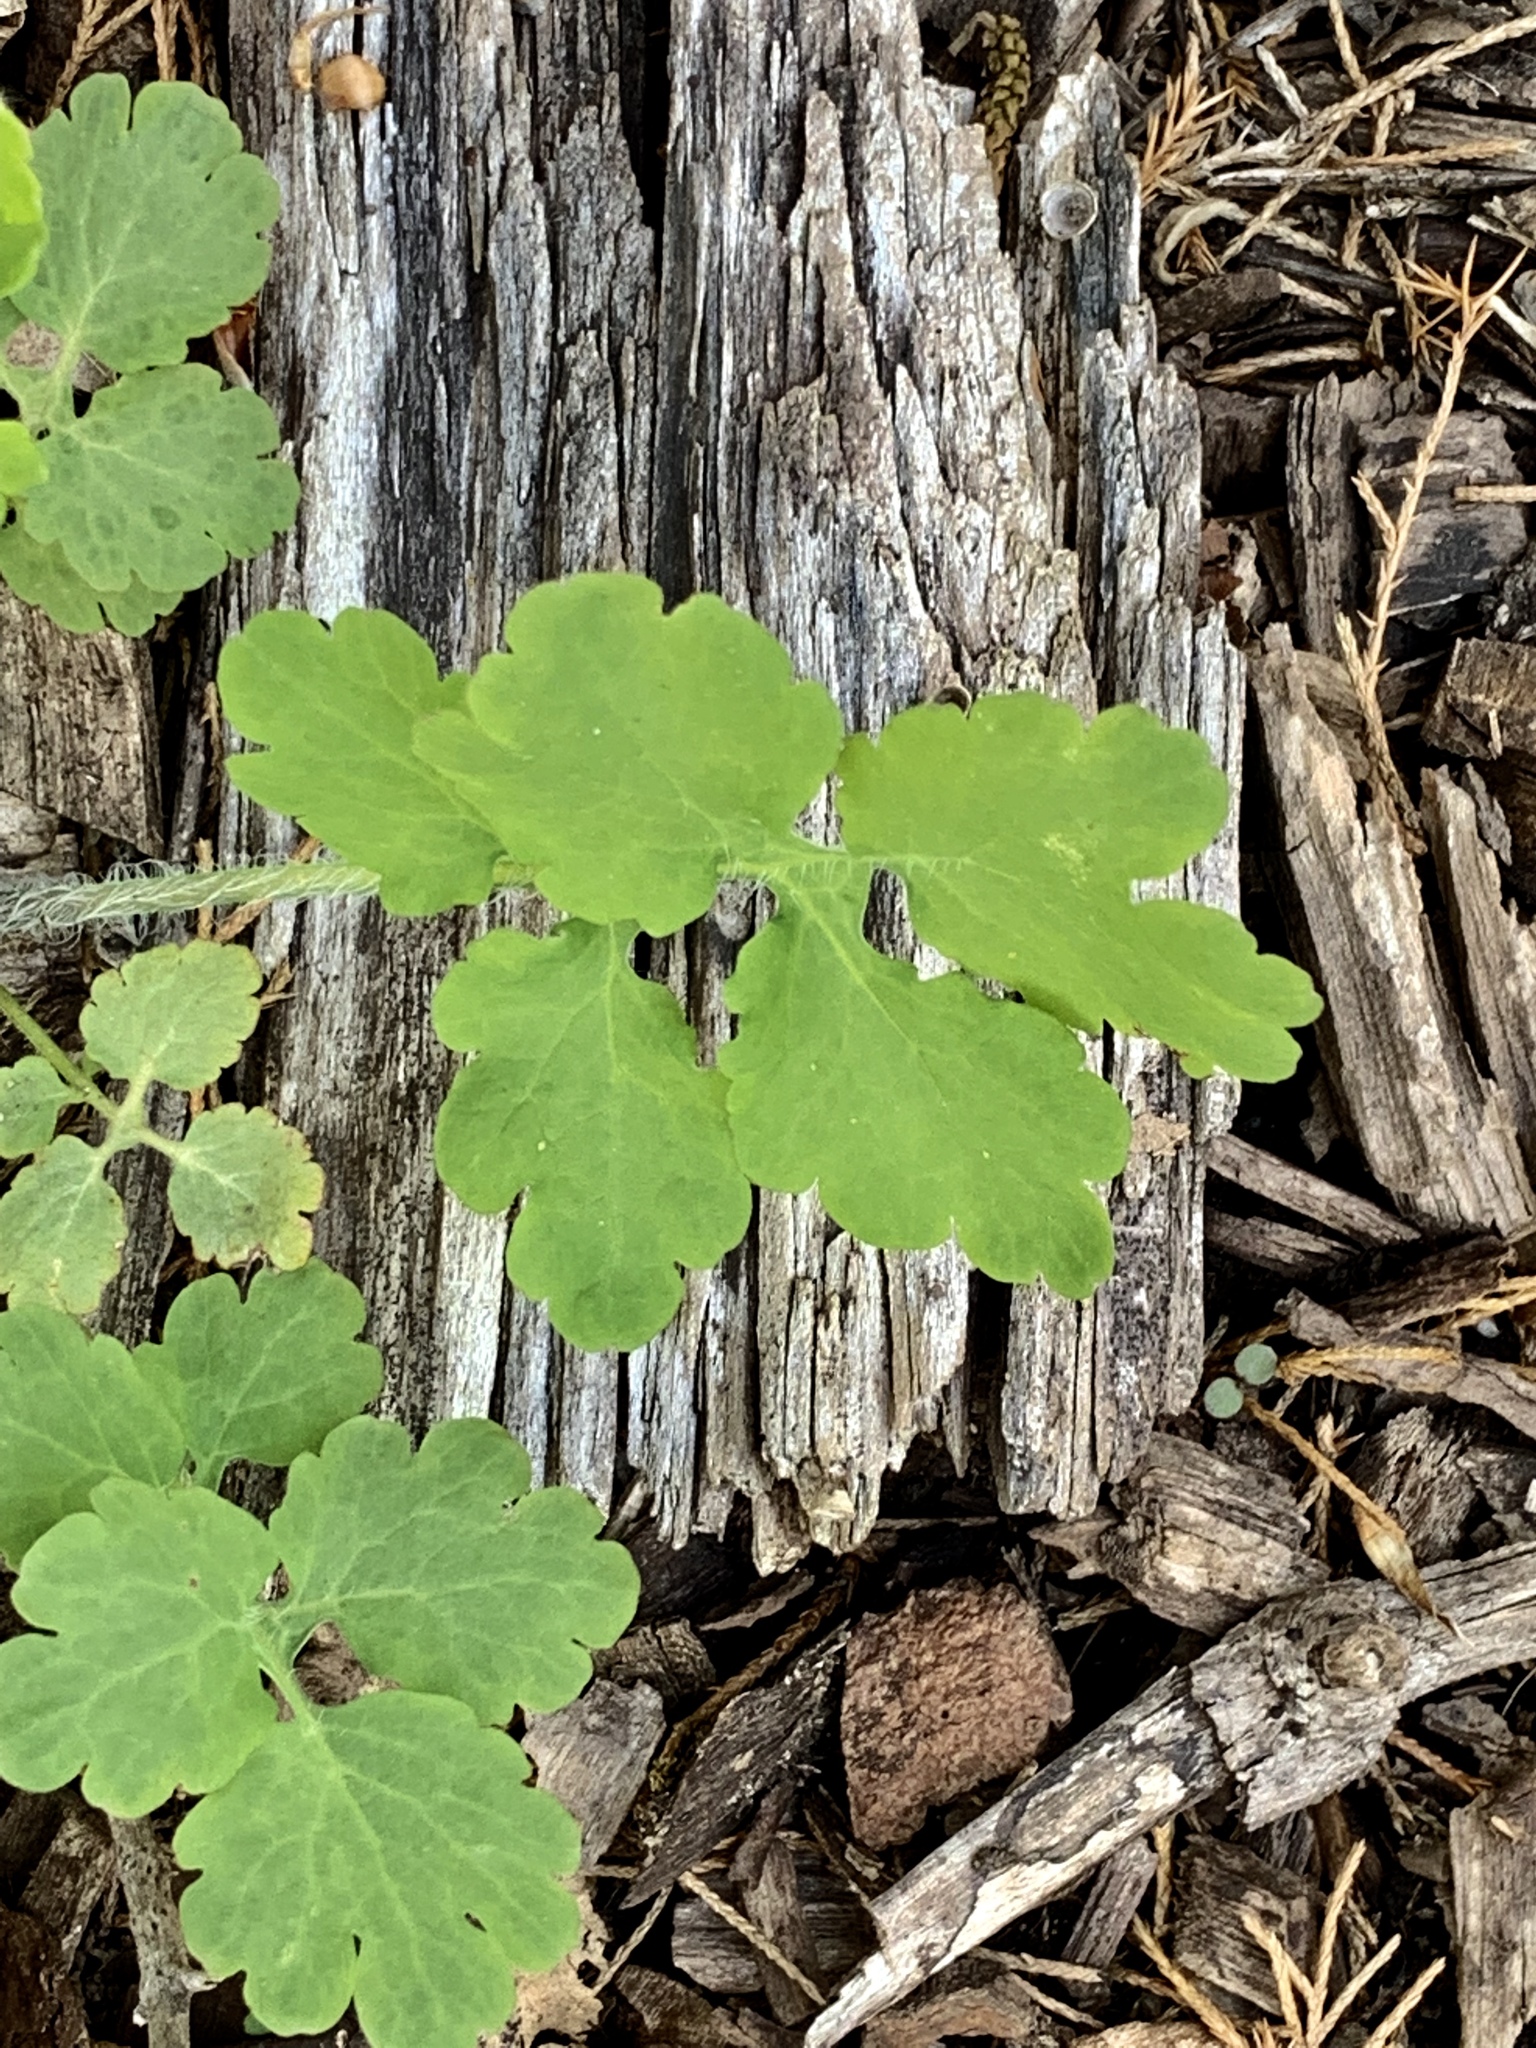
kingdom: Plantae
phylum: Tracheophyta
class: Magnoliopsida
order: Ranunculales
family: Papaveraceae
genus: Chelidonium
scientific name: Chelidonium majus
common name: Greater celandine
